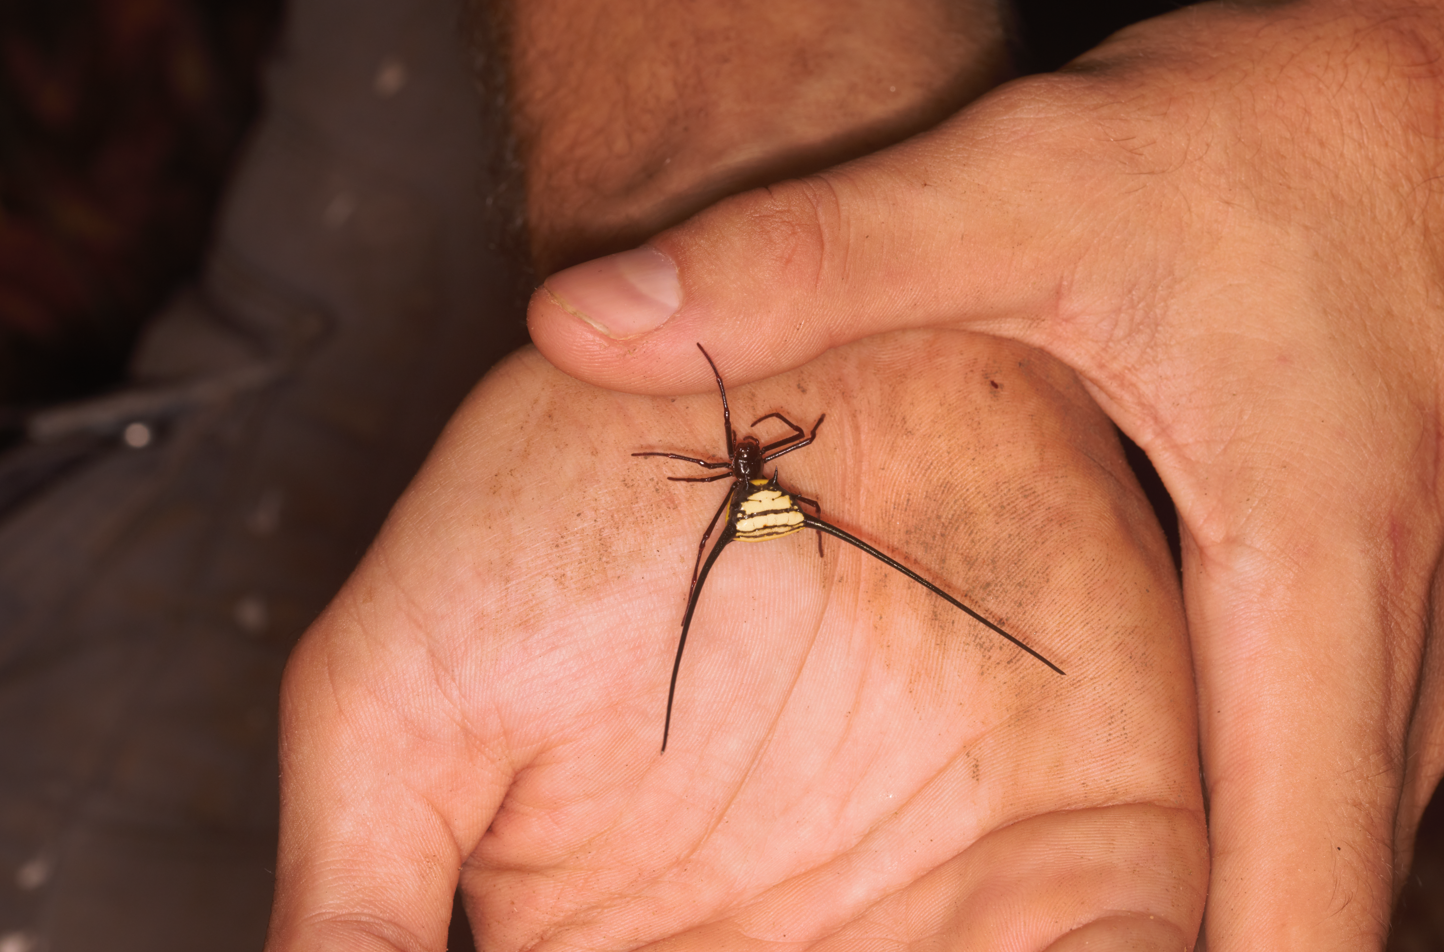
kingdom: Animalia
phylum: Arthropoda
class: Arachnida
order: Araneae
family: Araneidae
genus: Micrathena
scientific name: Micrathena cyanospina
